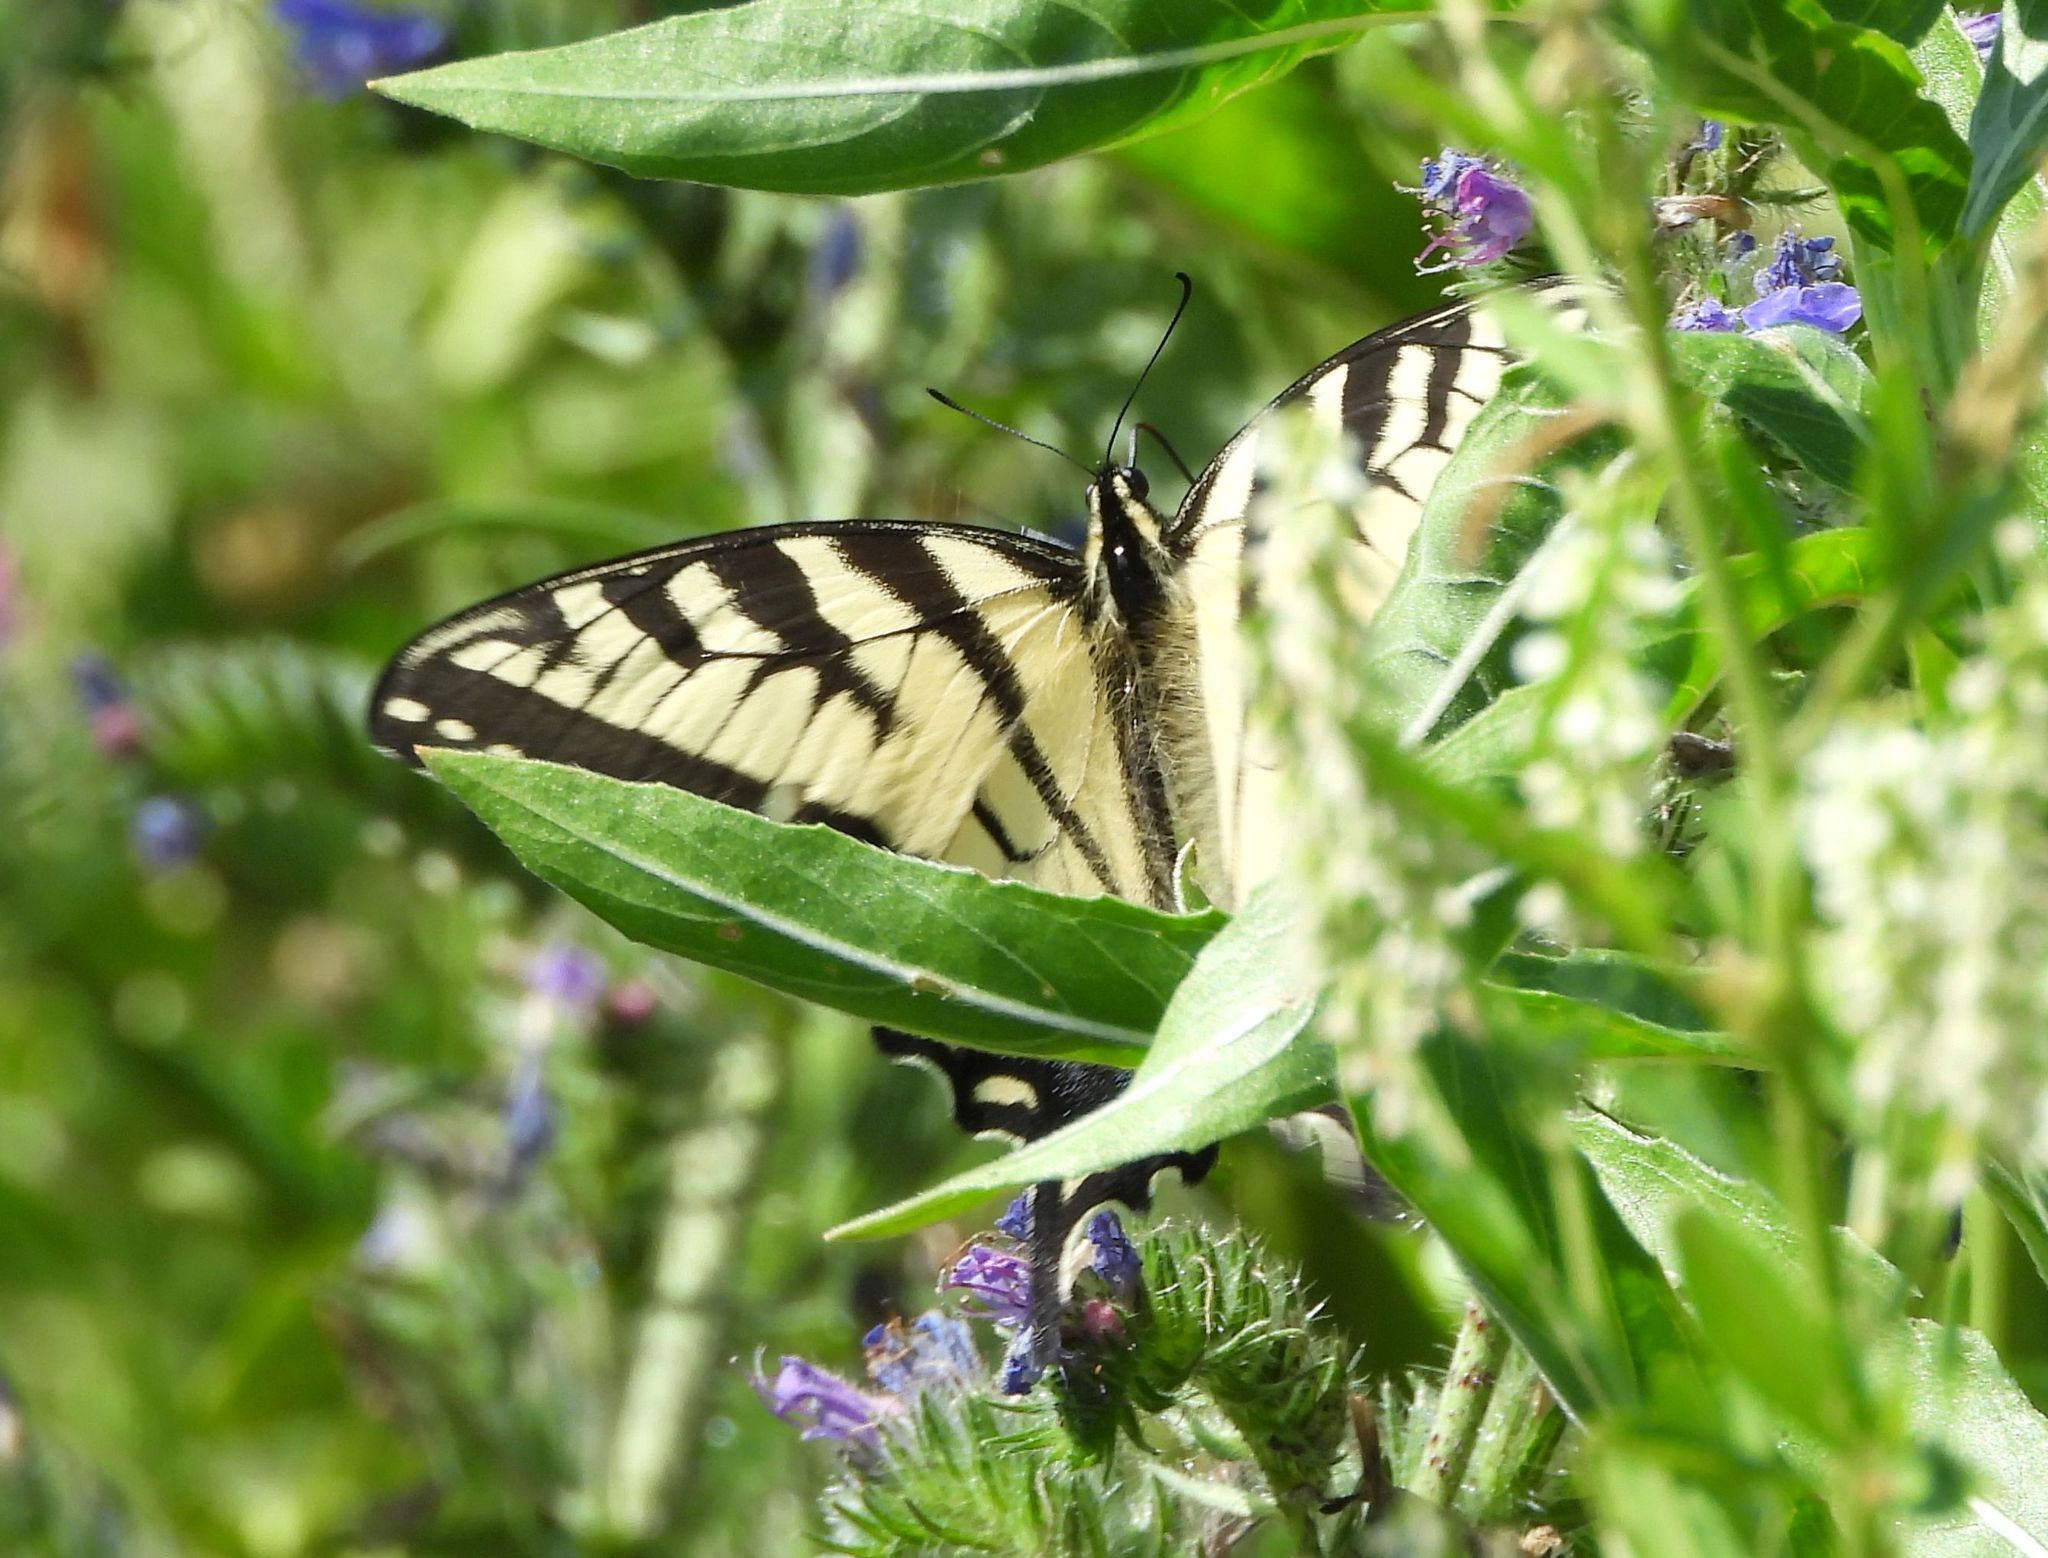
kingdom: Animalia
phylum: Arthropoda
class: Insecta
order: Lepidoptera
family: Papilionidae
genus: Papilio
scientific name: Papilio
